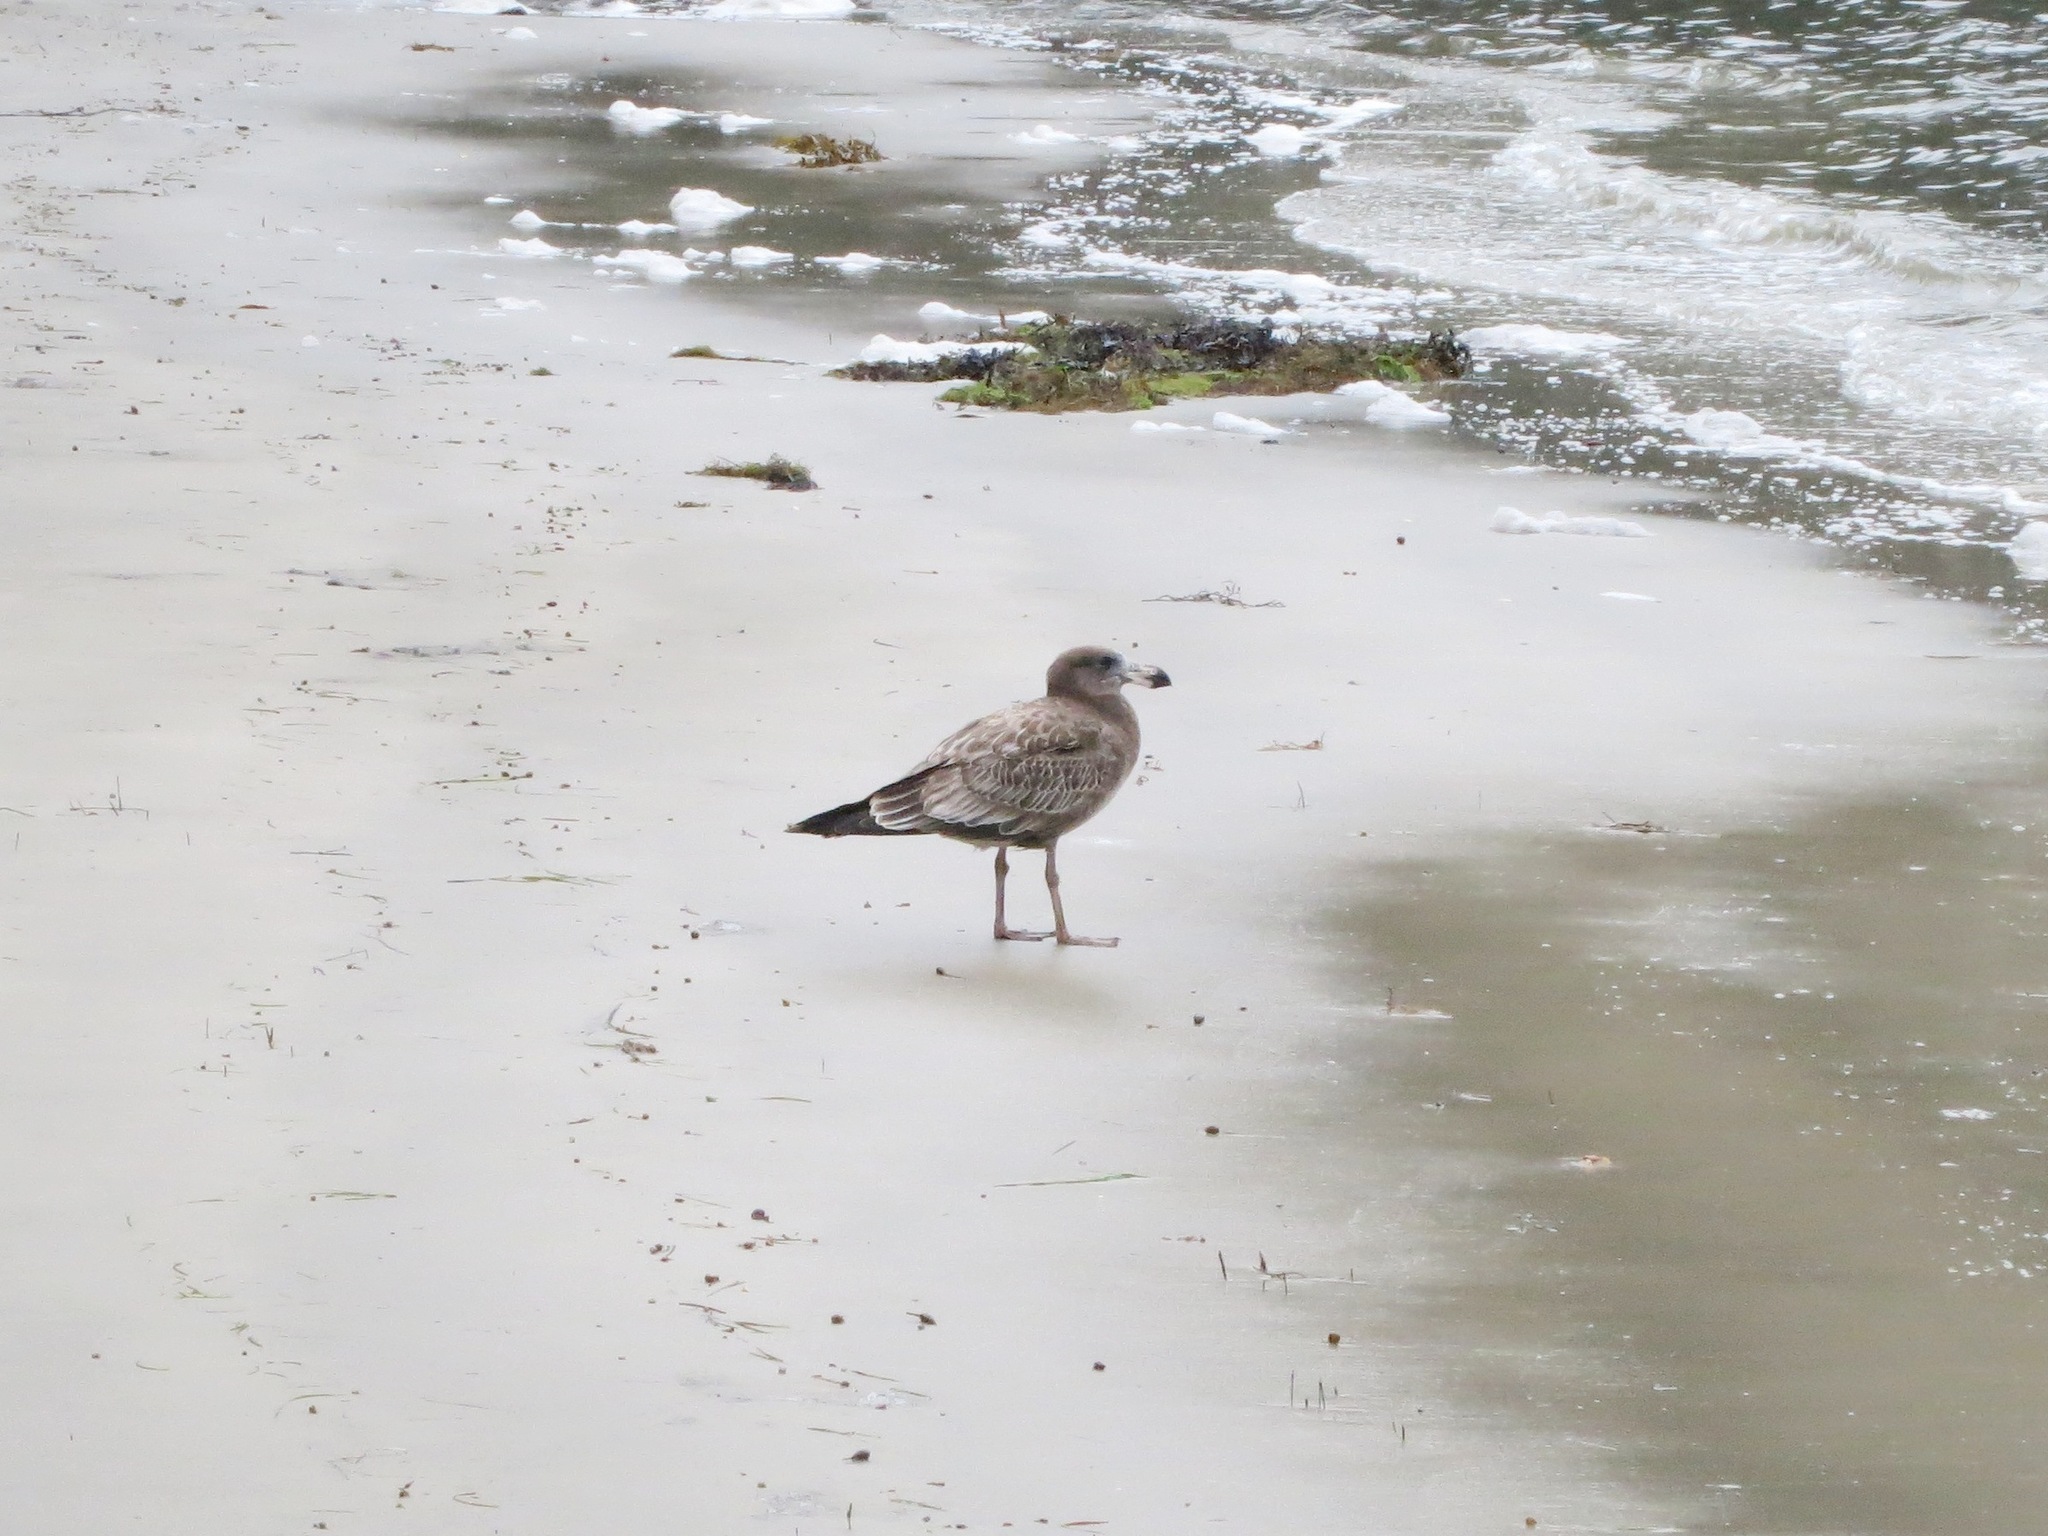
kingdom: Animalia
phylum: Chordata
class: Aves
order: Charadriiformes
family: Laridae
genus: Larus
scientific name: Larus pacificus
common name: Pacific gull
